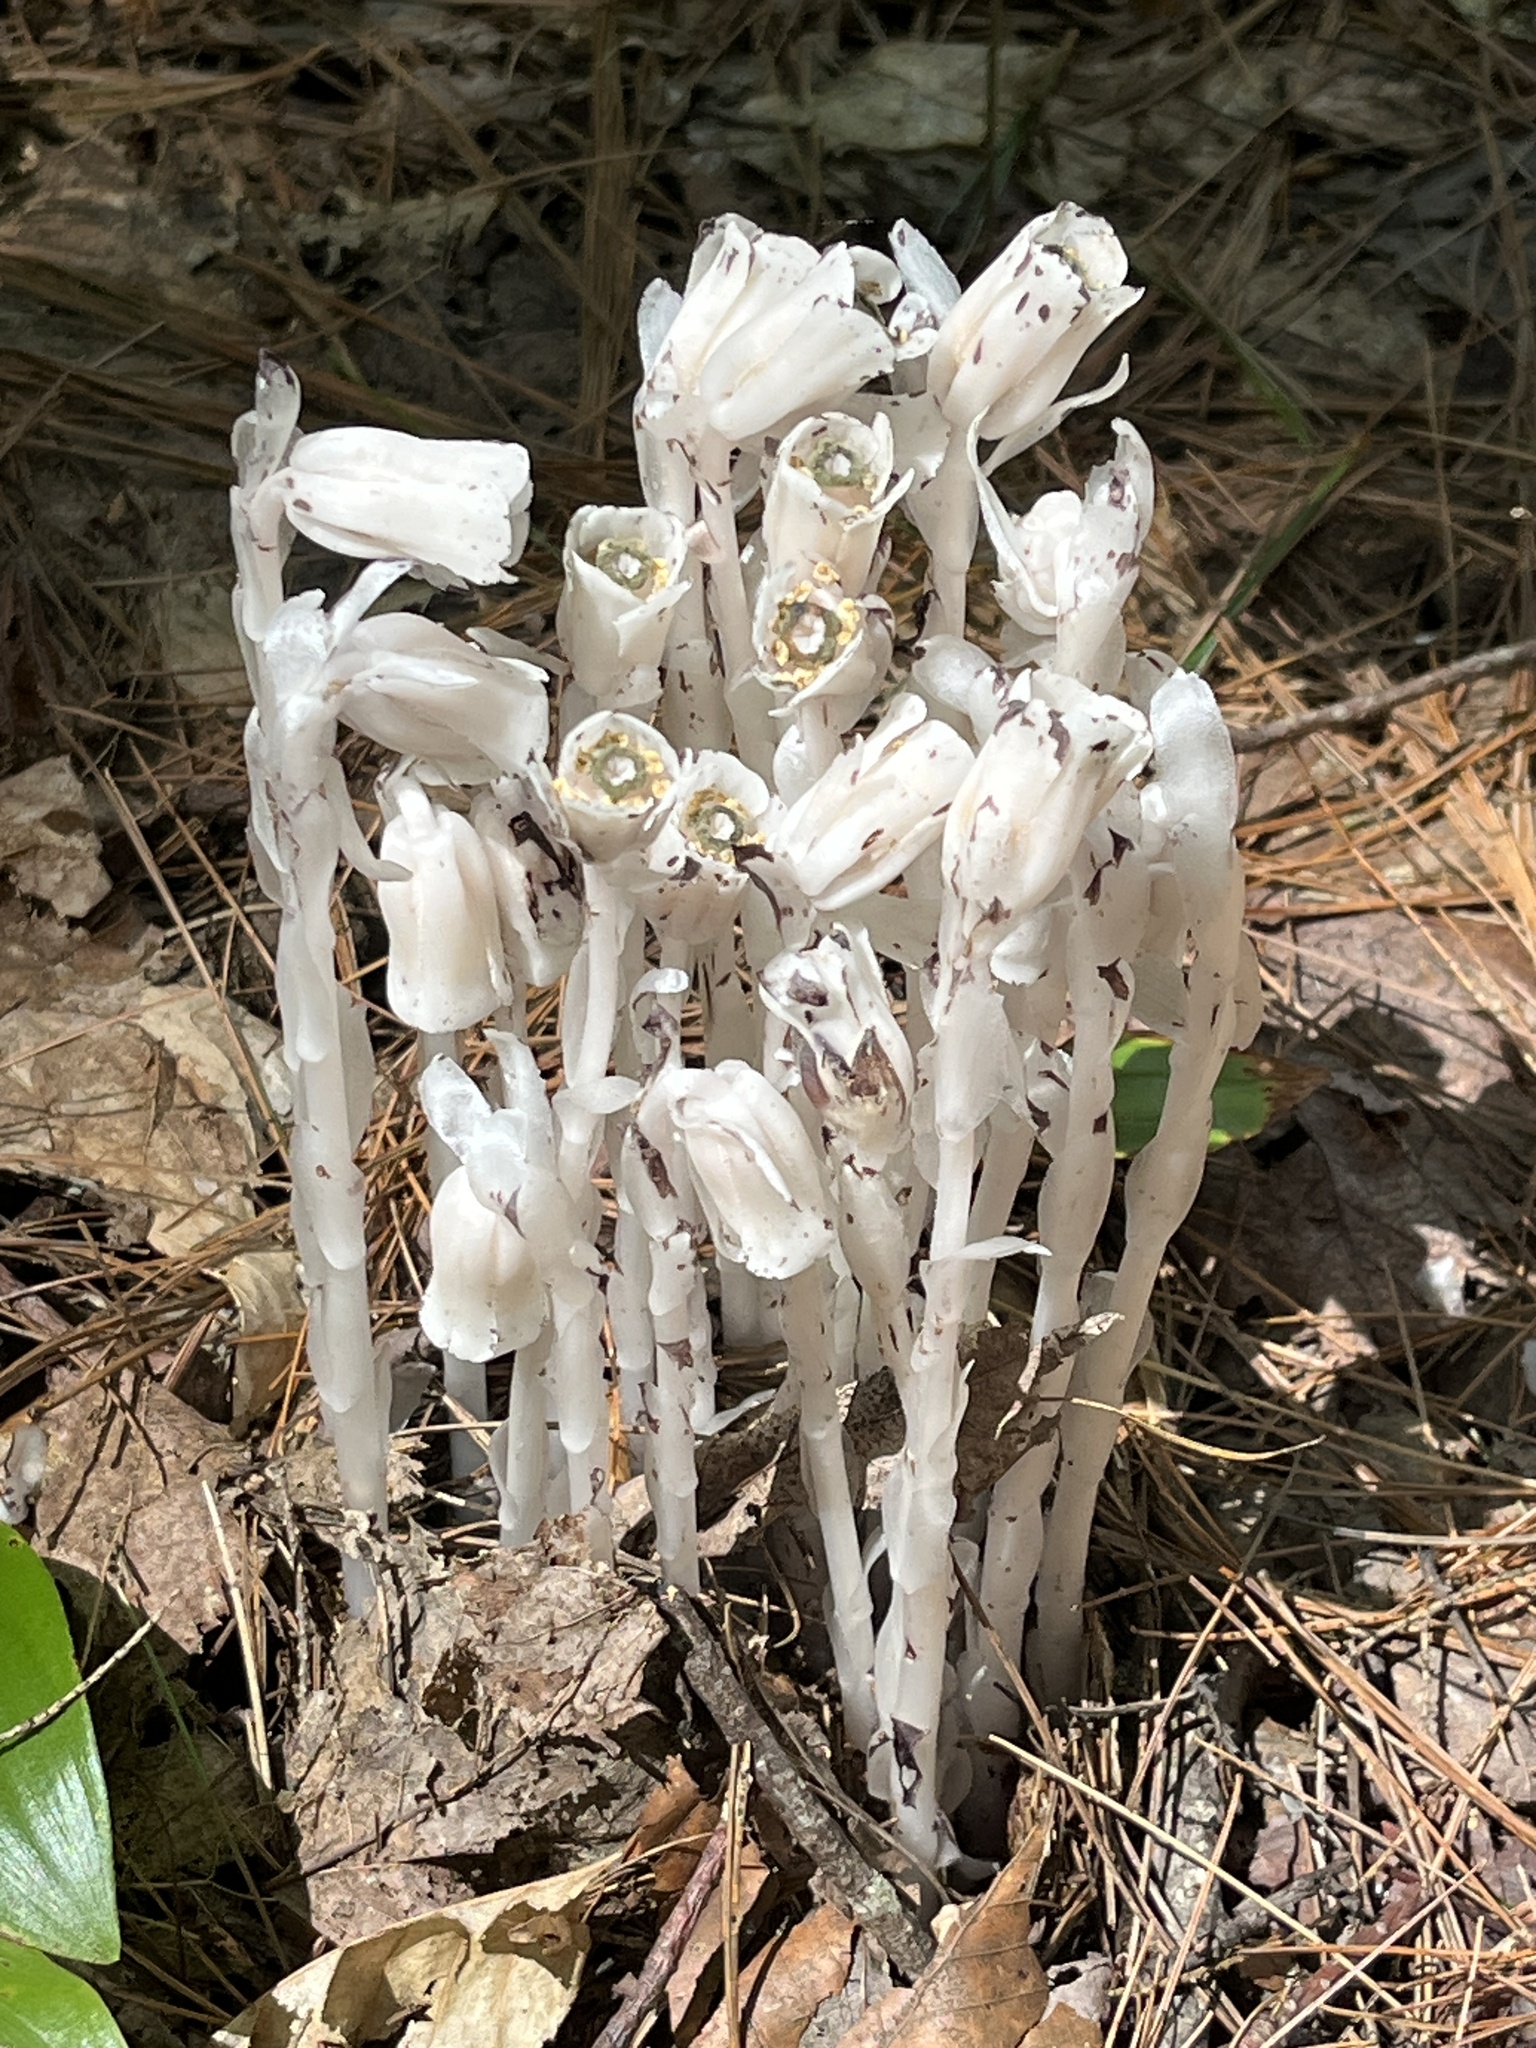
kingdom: Plantae
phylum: Tracheophyta
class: Magnoliopsida
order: Ericales
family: Ericaceae
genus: Monotropa
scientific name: Monotropa uniflora
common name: Convulsion root
